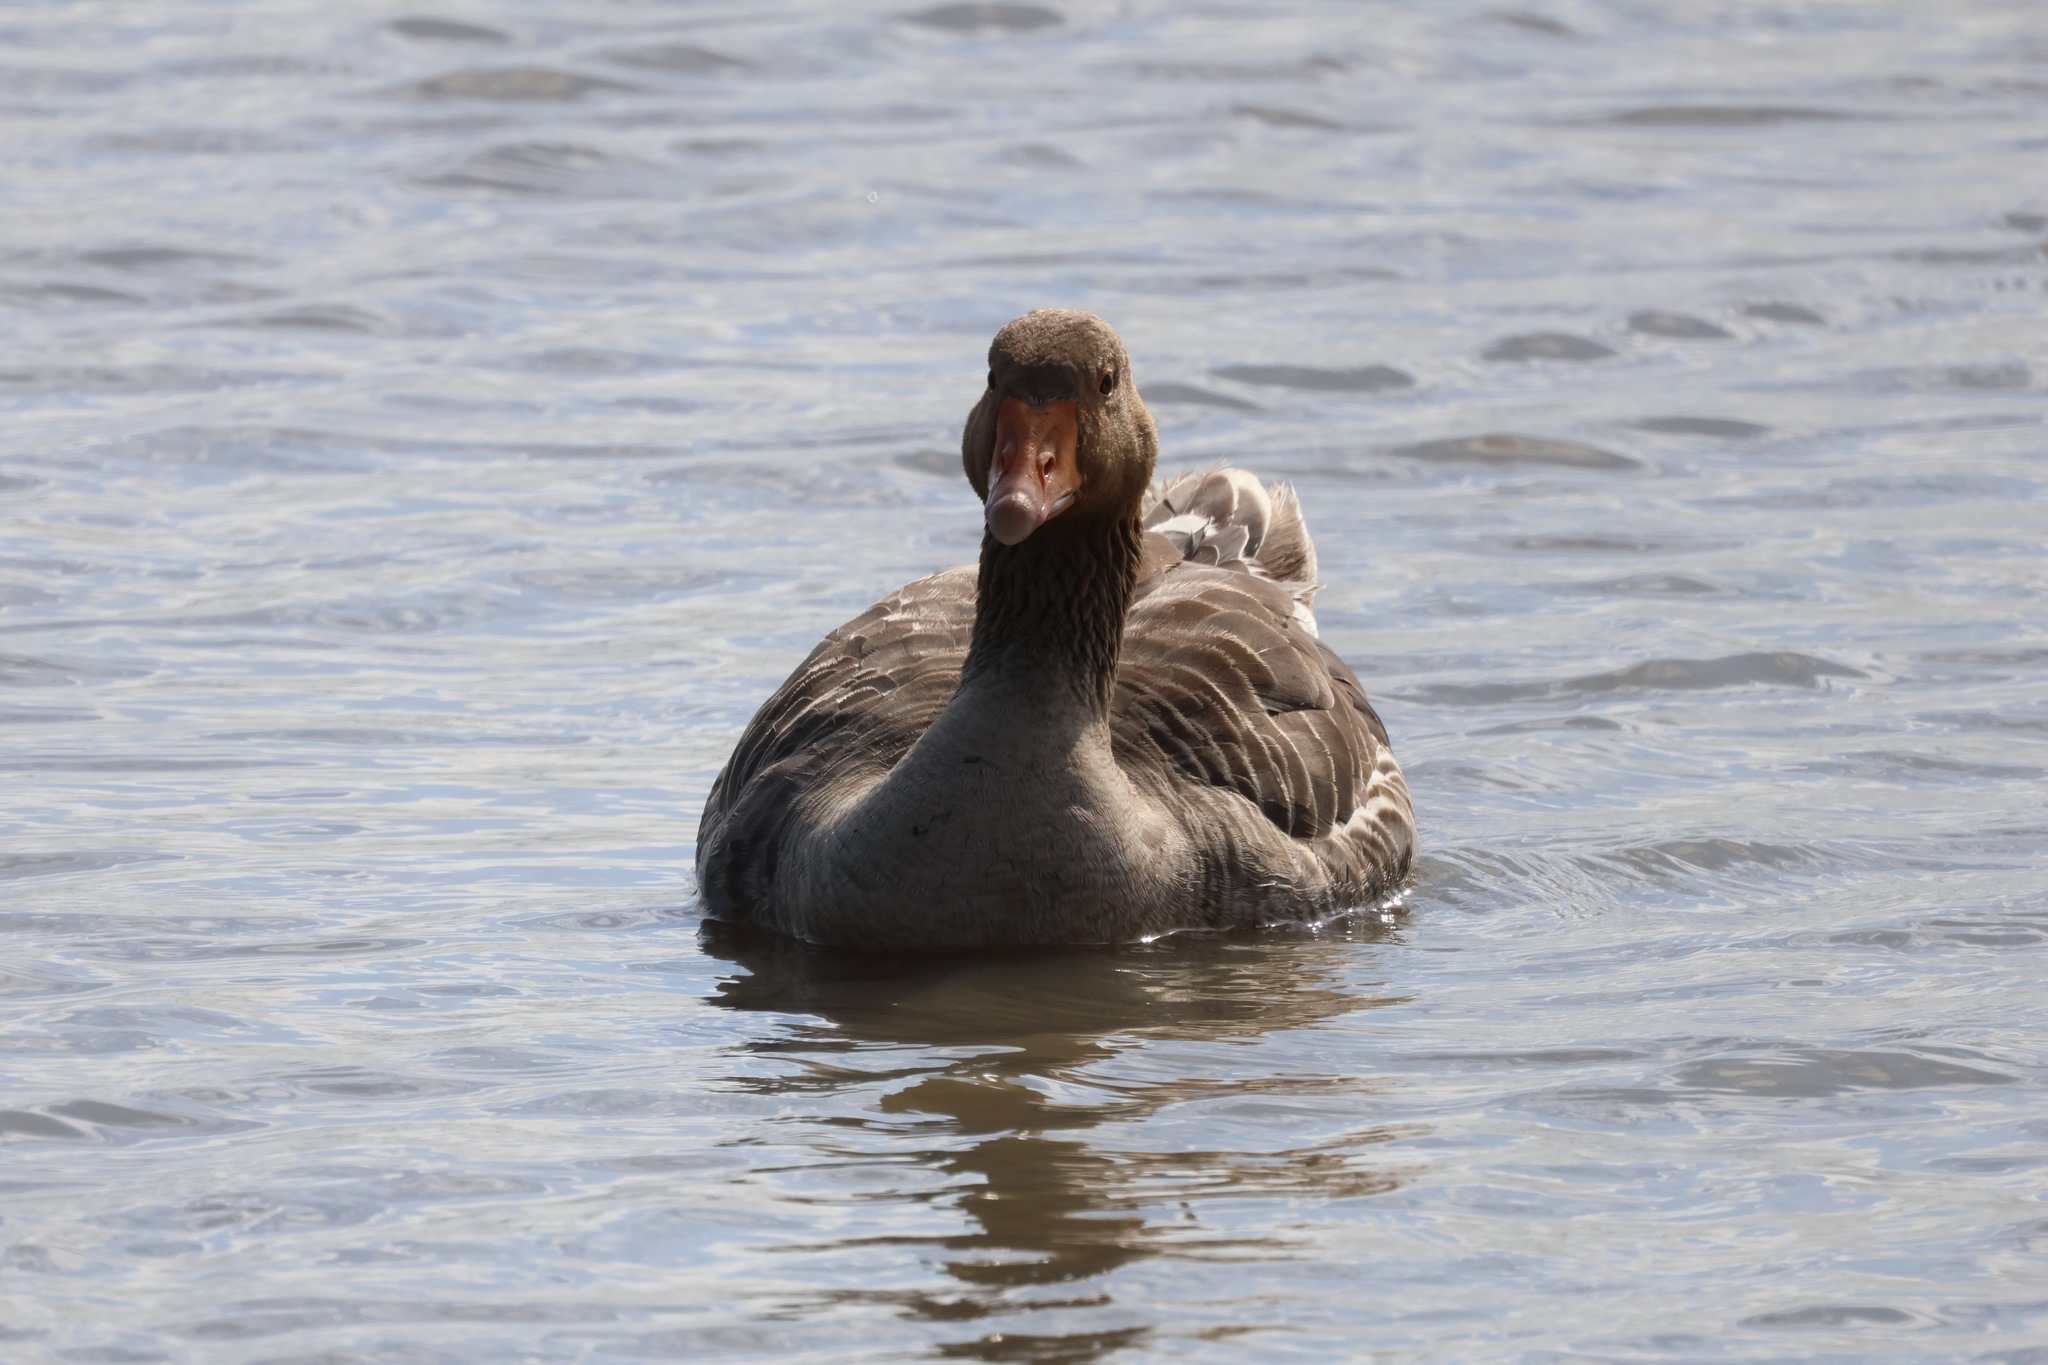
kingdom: Animalia
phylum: Chordata
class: Aves
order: Anseriformes
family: Anatidae
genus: Anser
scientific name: Anser anser
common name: Greylag goose
